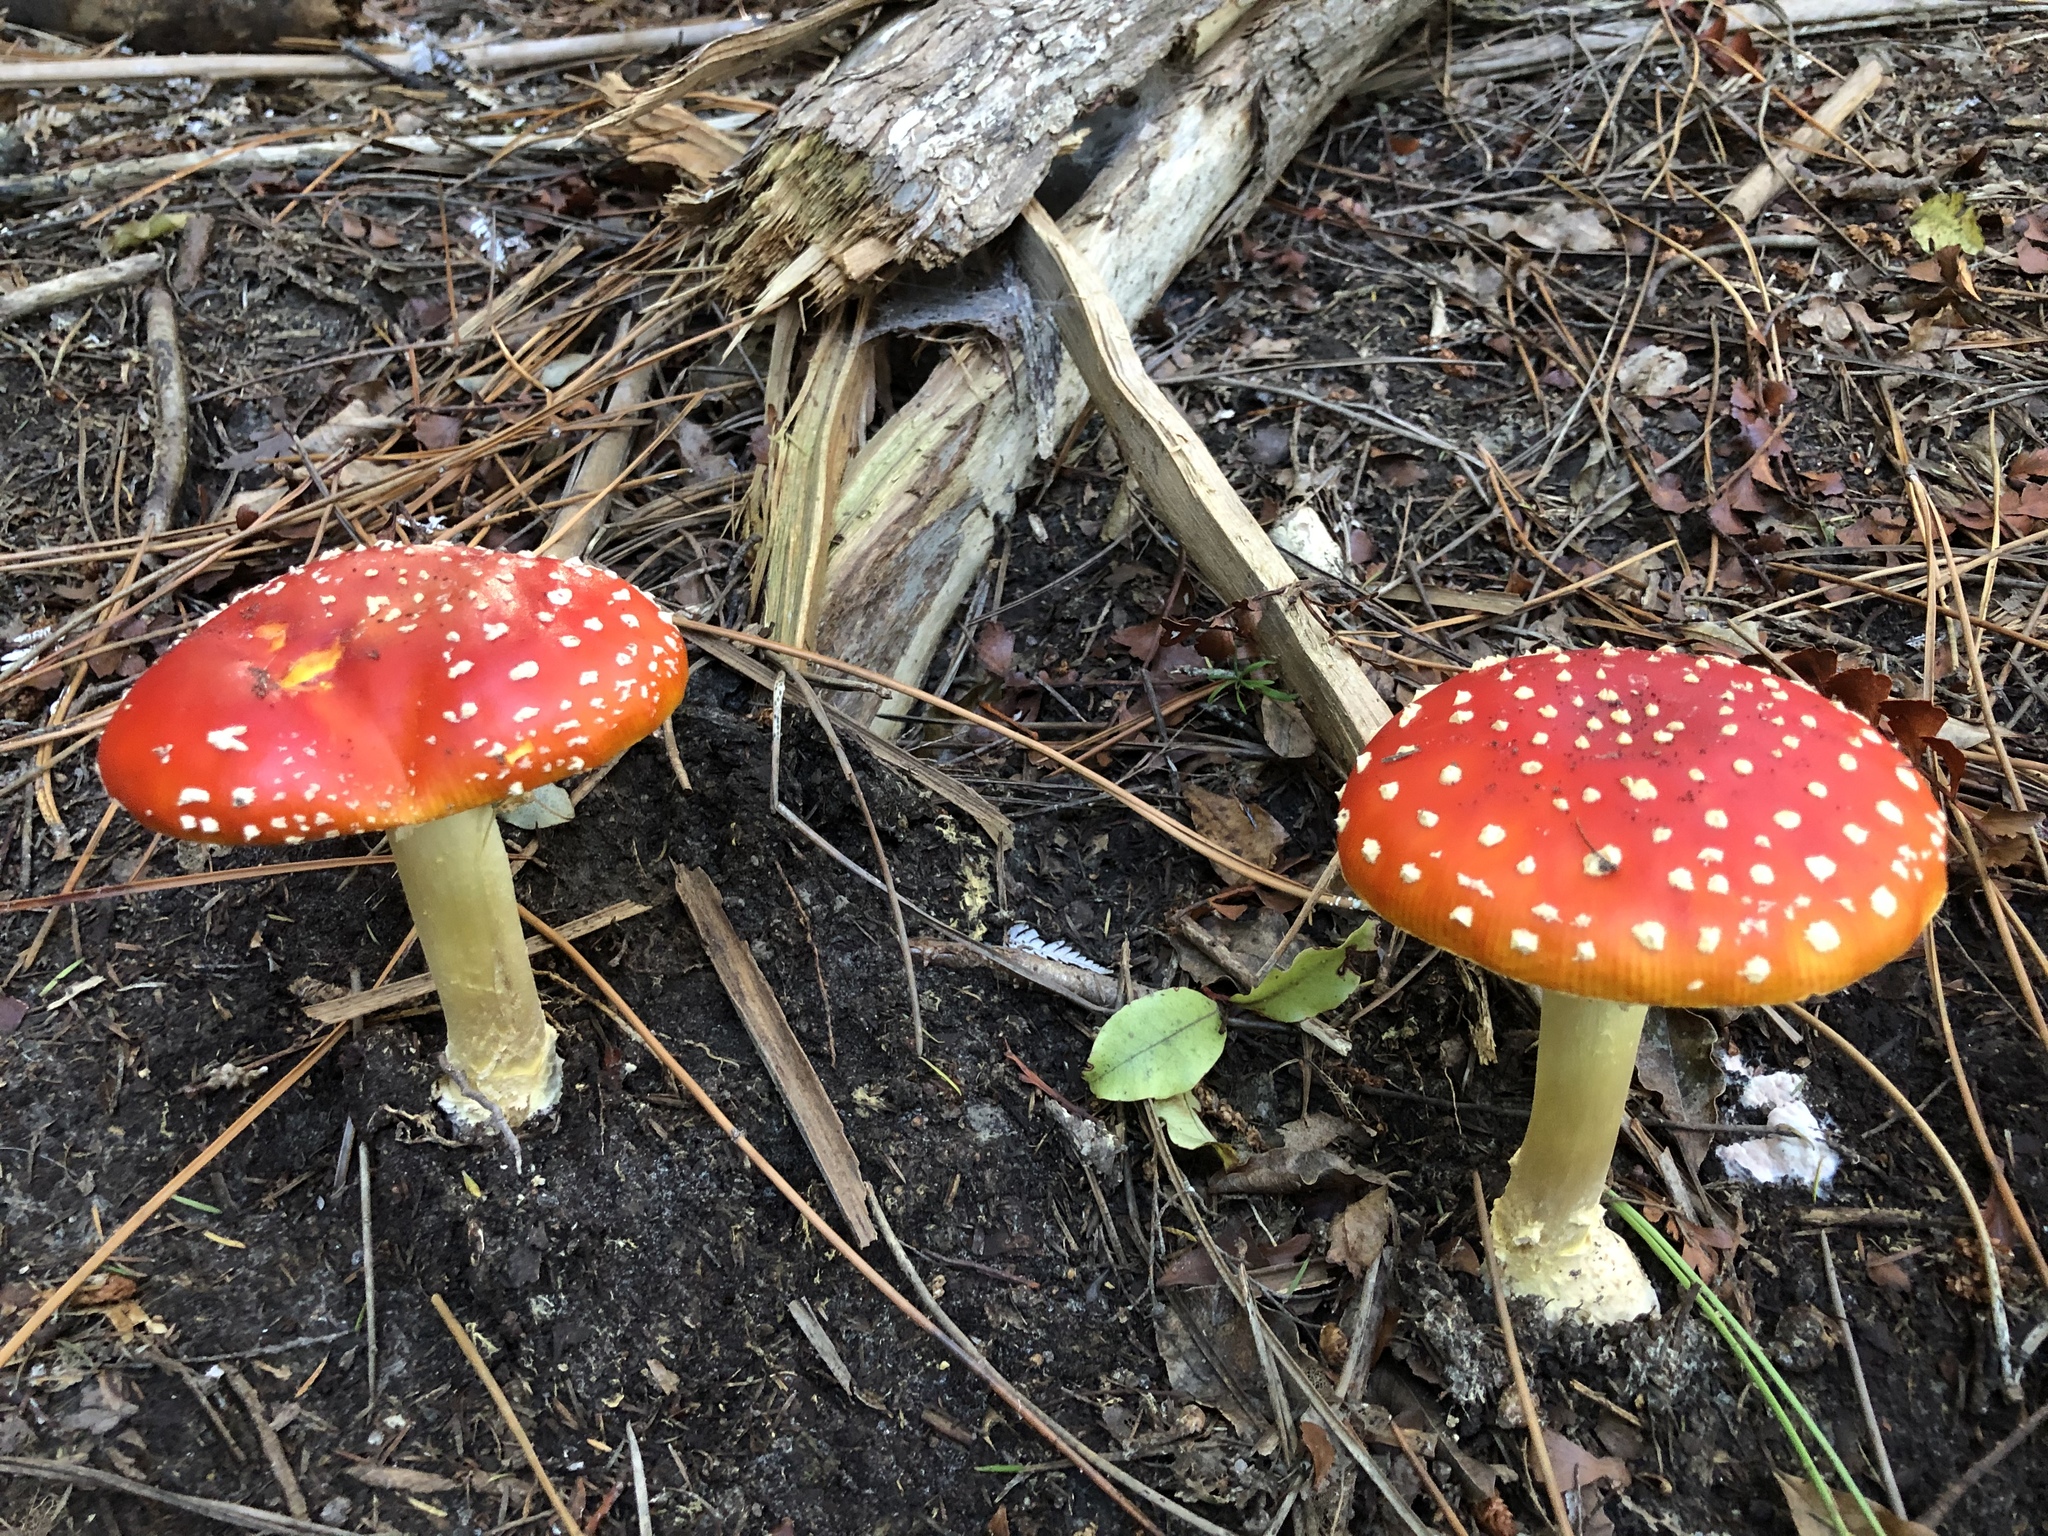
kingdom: Fungi
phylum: Basidiomycota
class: Agaricomycetes
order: Agaricales
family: Amanitaceae
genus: Amanita
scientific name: Amanita muscaria
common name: Fly agaric
